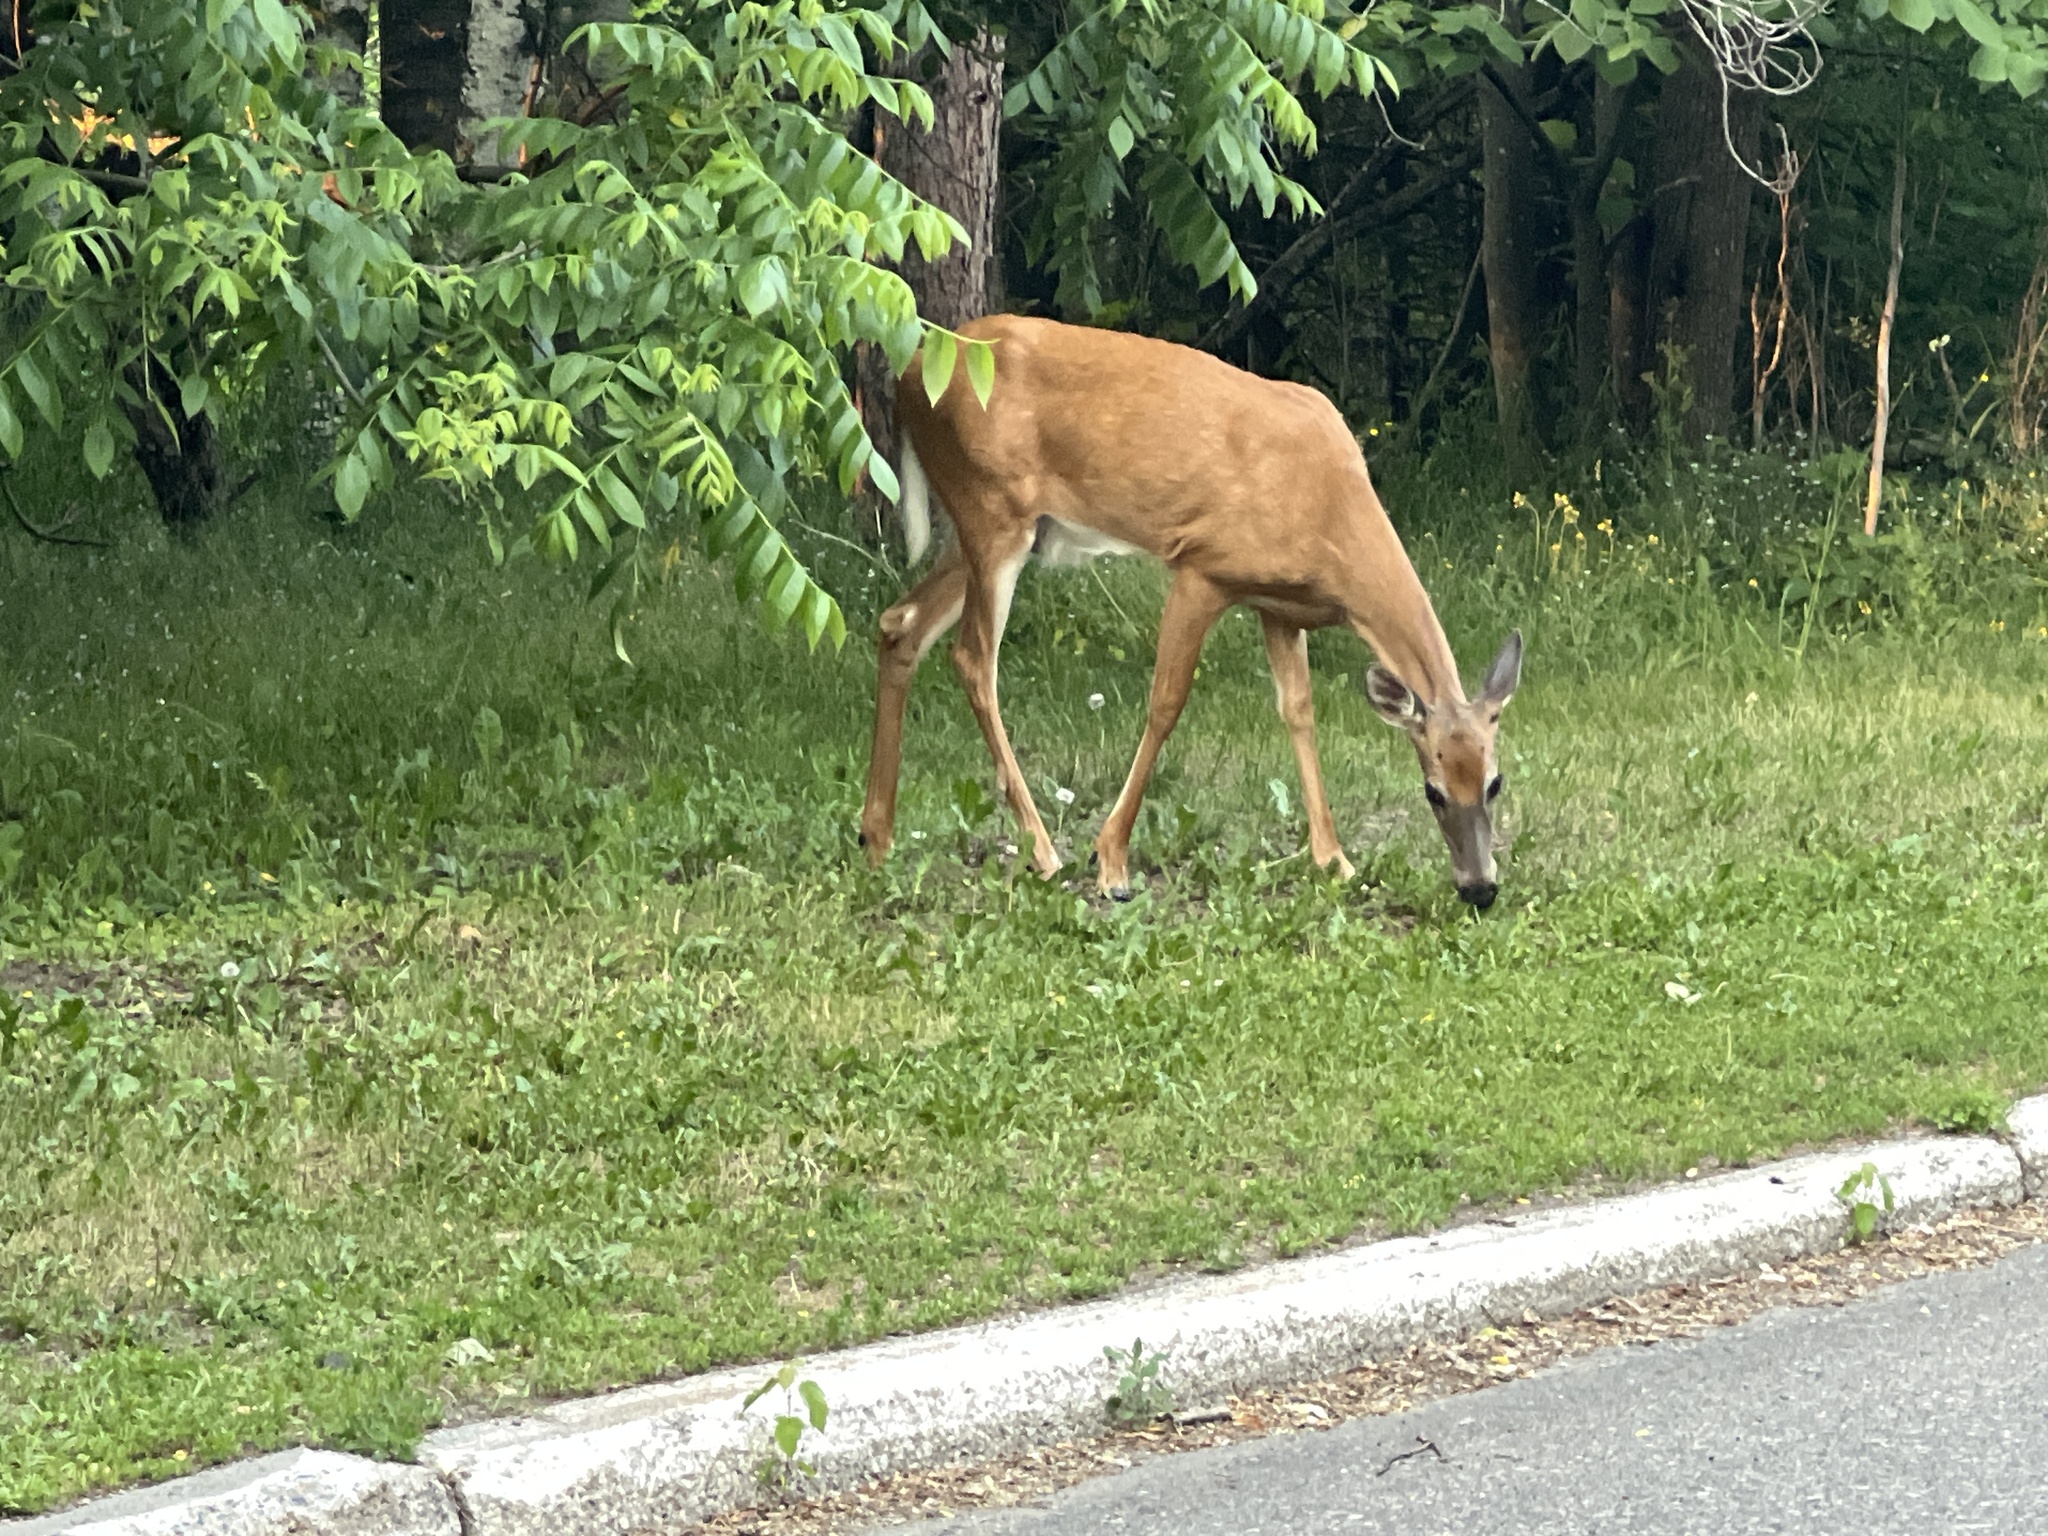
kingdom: Animalia
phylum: Chordata
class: Mammalia
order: Artiodactyla
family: Cervidae
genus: Odocoileus
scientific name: Odocoileus virginianus
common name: White-tailed deer
